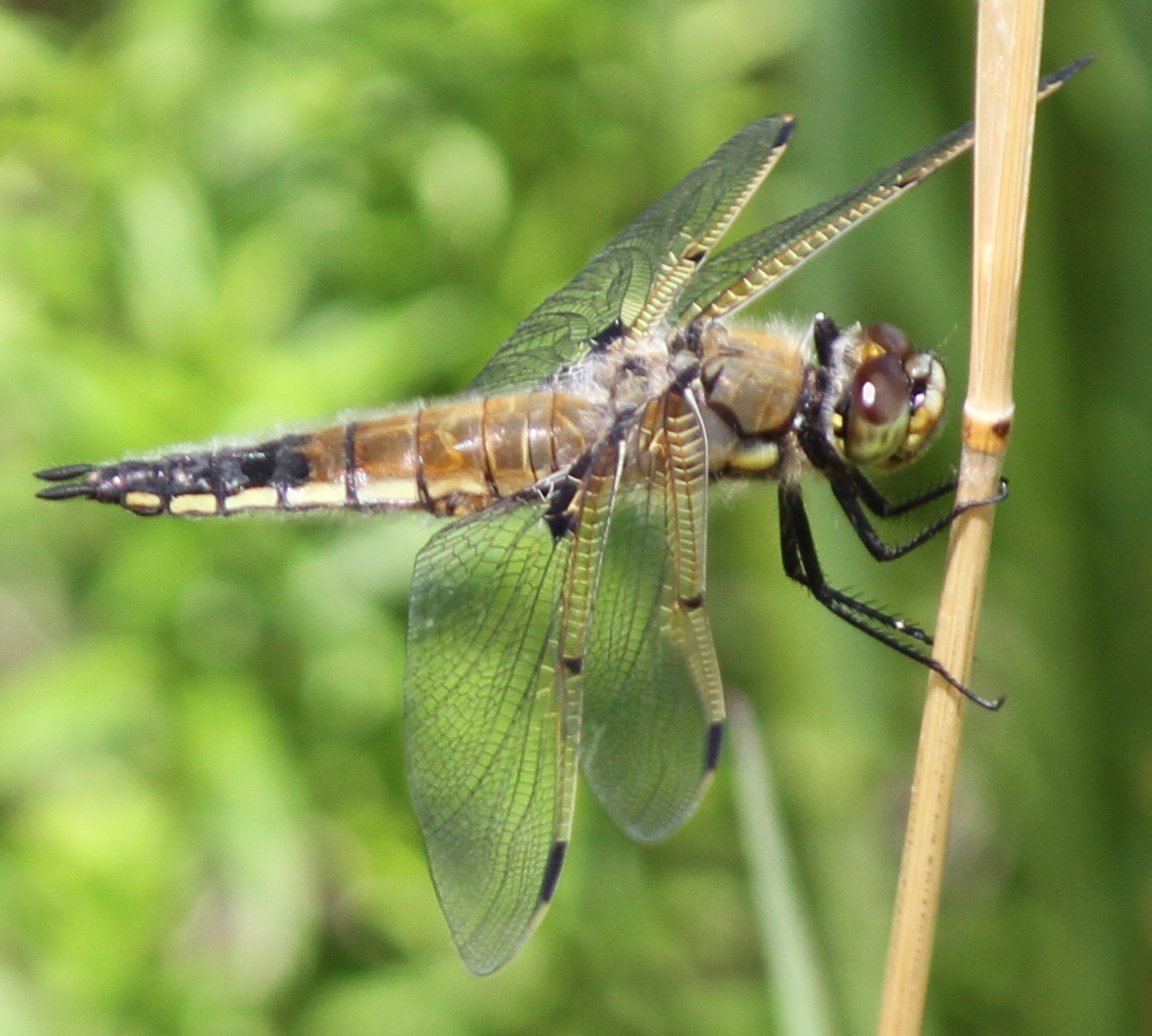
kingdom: Animalia
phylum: Arthropoda
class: Insecta
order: Odonata
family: Libellulidae
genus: Libellula
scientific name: Libellula quadrimaculata
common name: Four-spotted chaser
